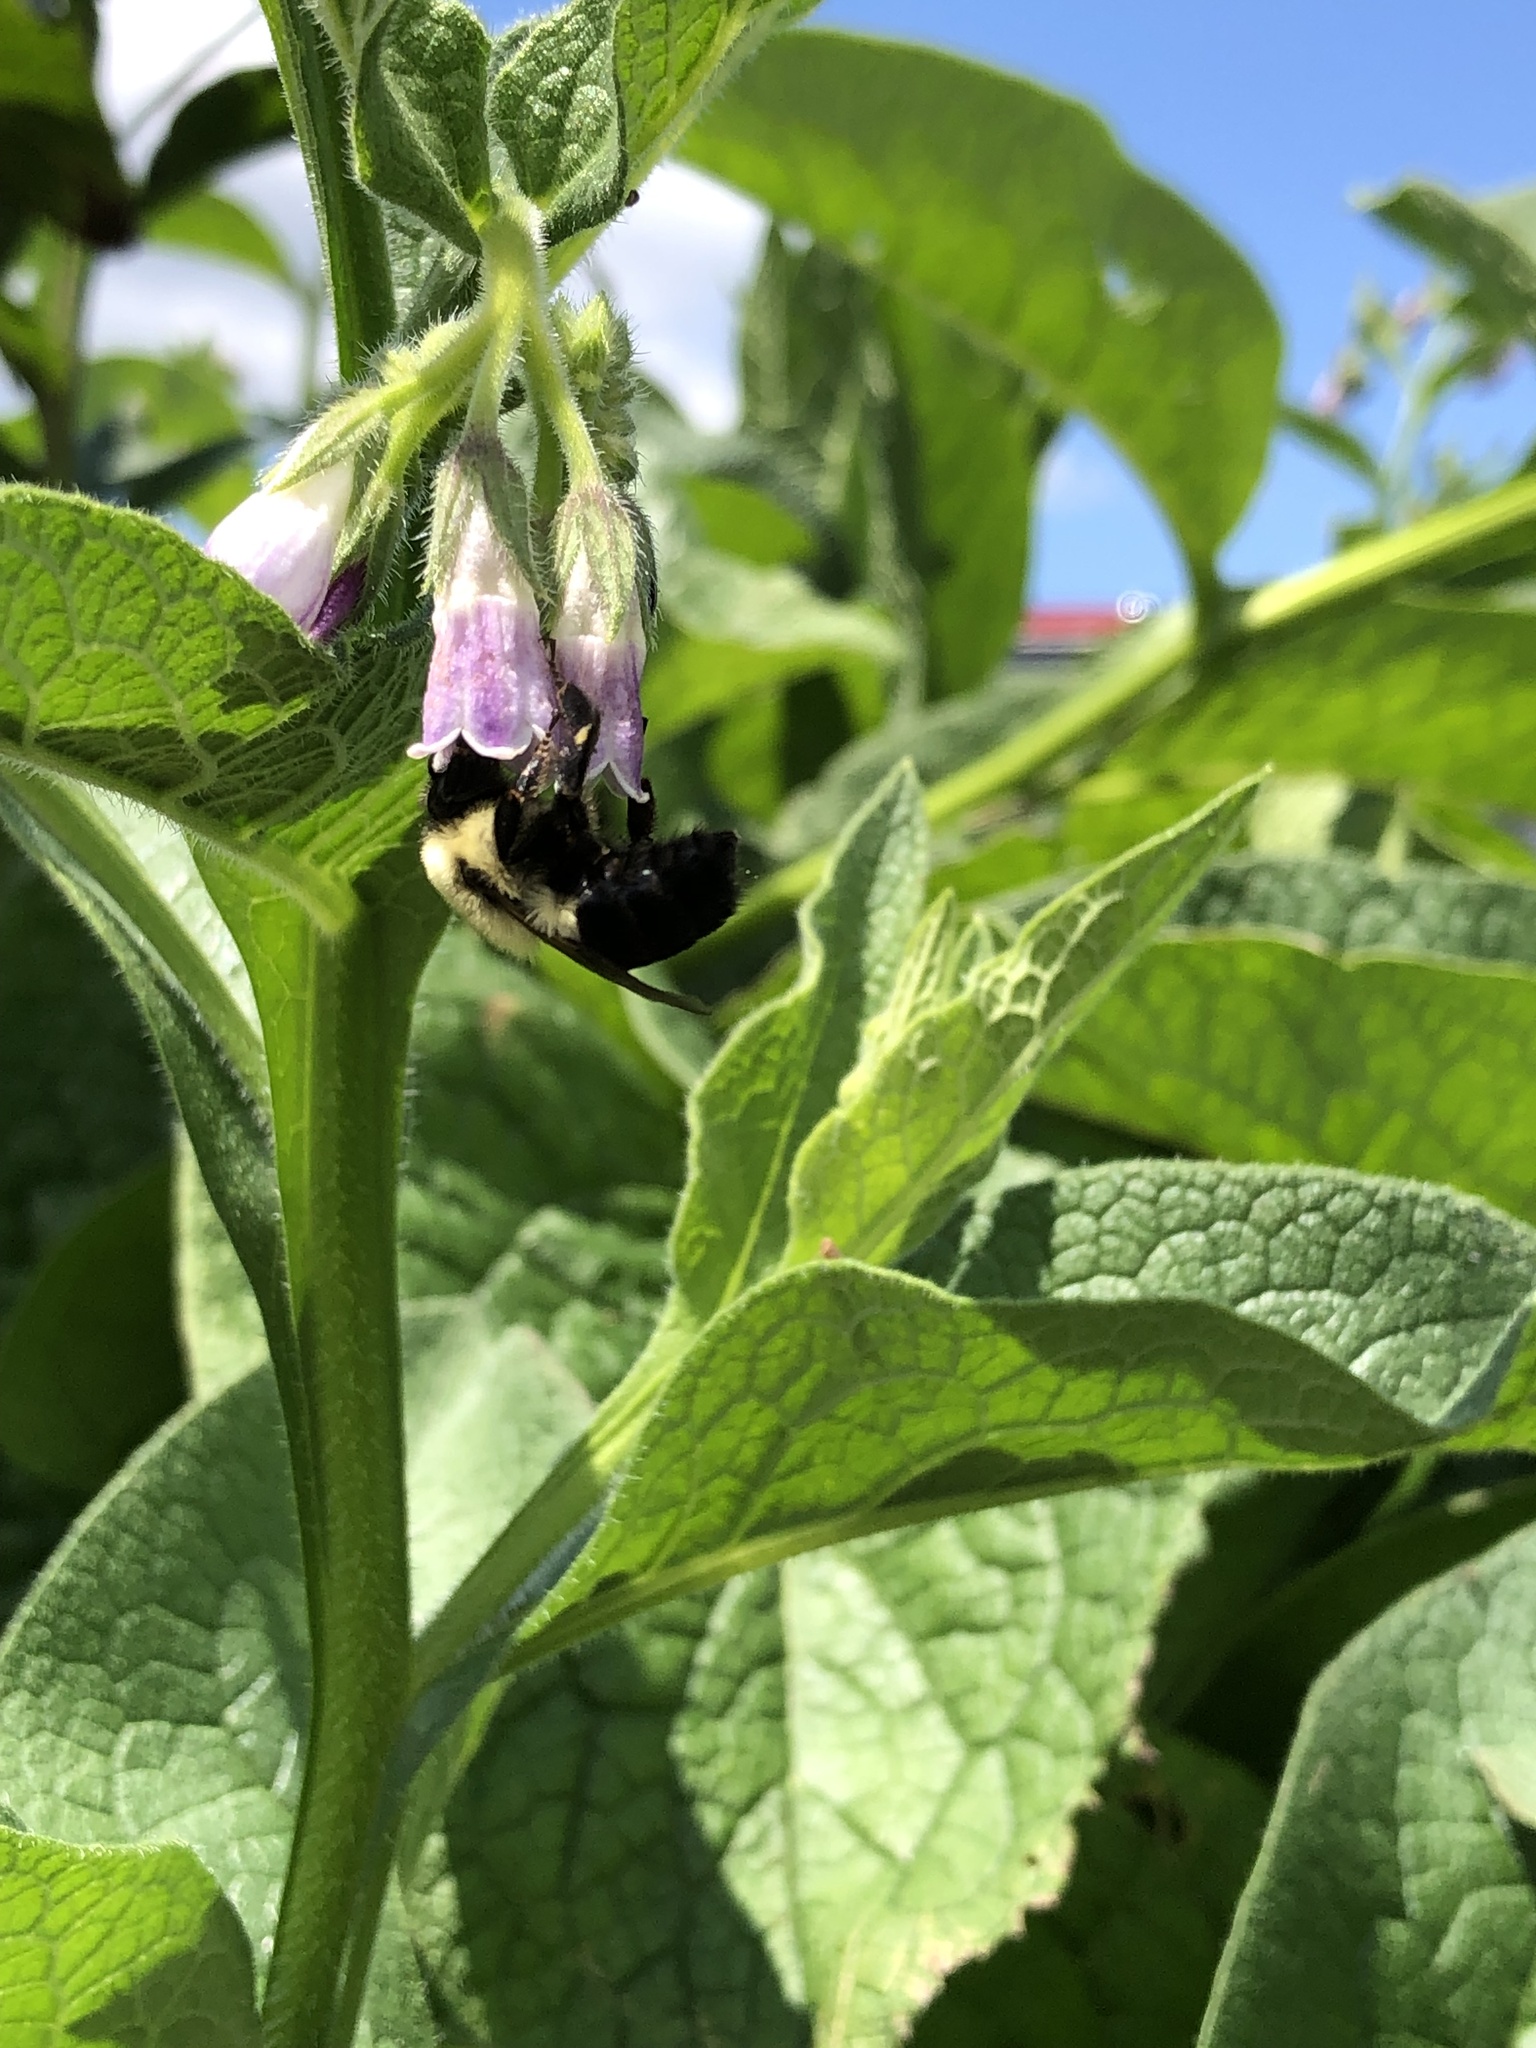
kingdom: Animalia
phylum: Arthropoda
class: Insecta
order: Hymenoptera
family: Apidae
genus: Bombus
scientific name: Bombus impatiens
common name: Common eastern bumble bee
